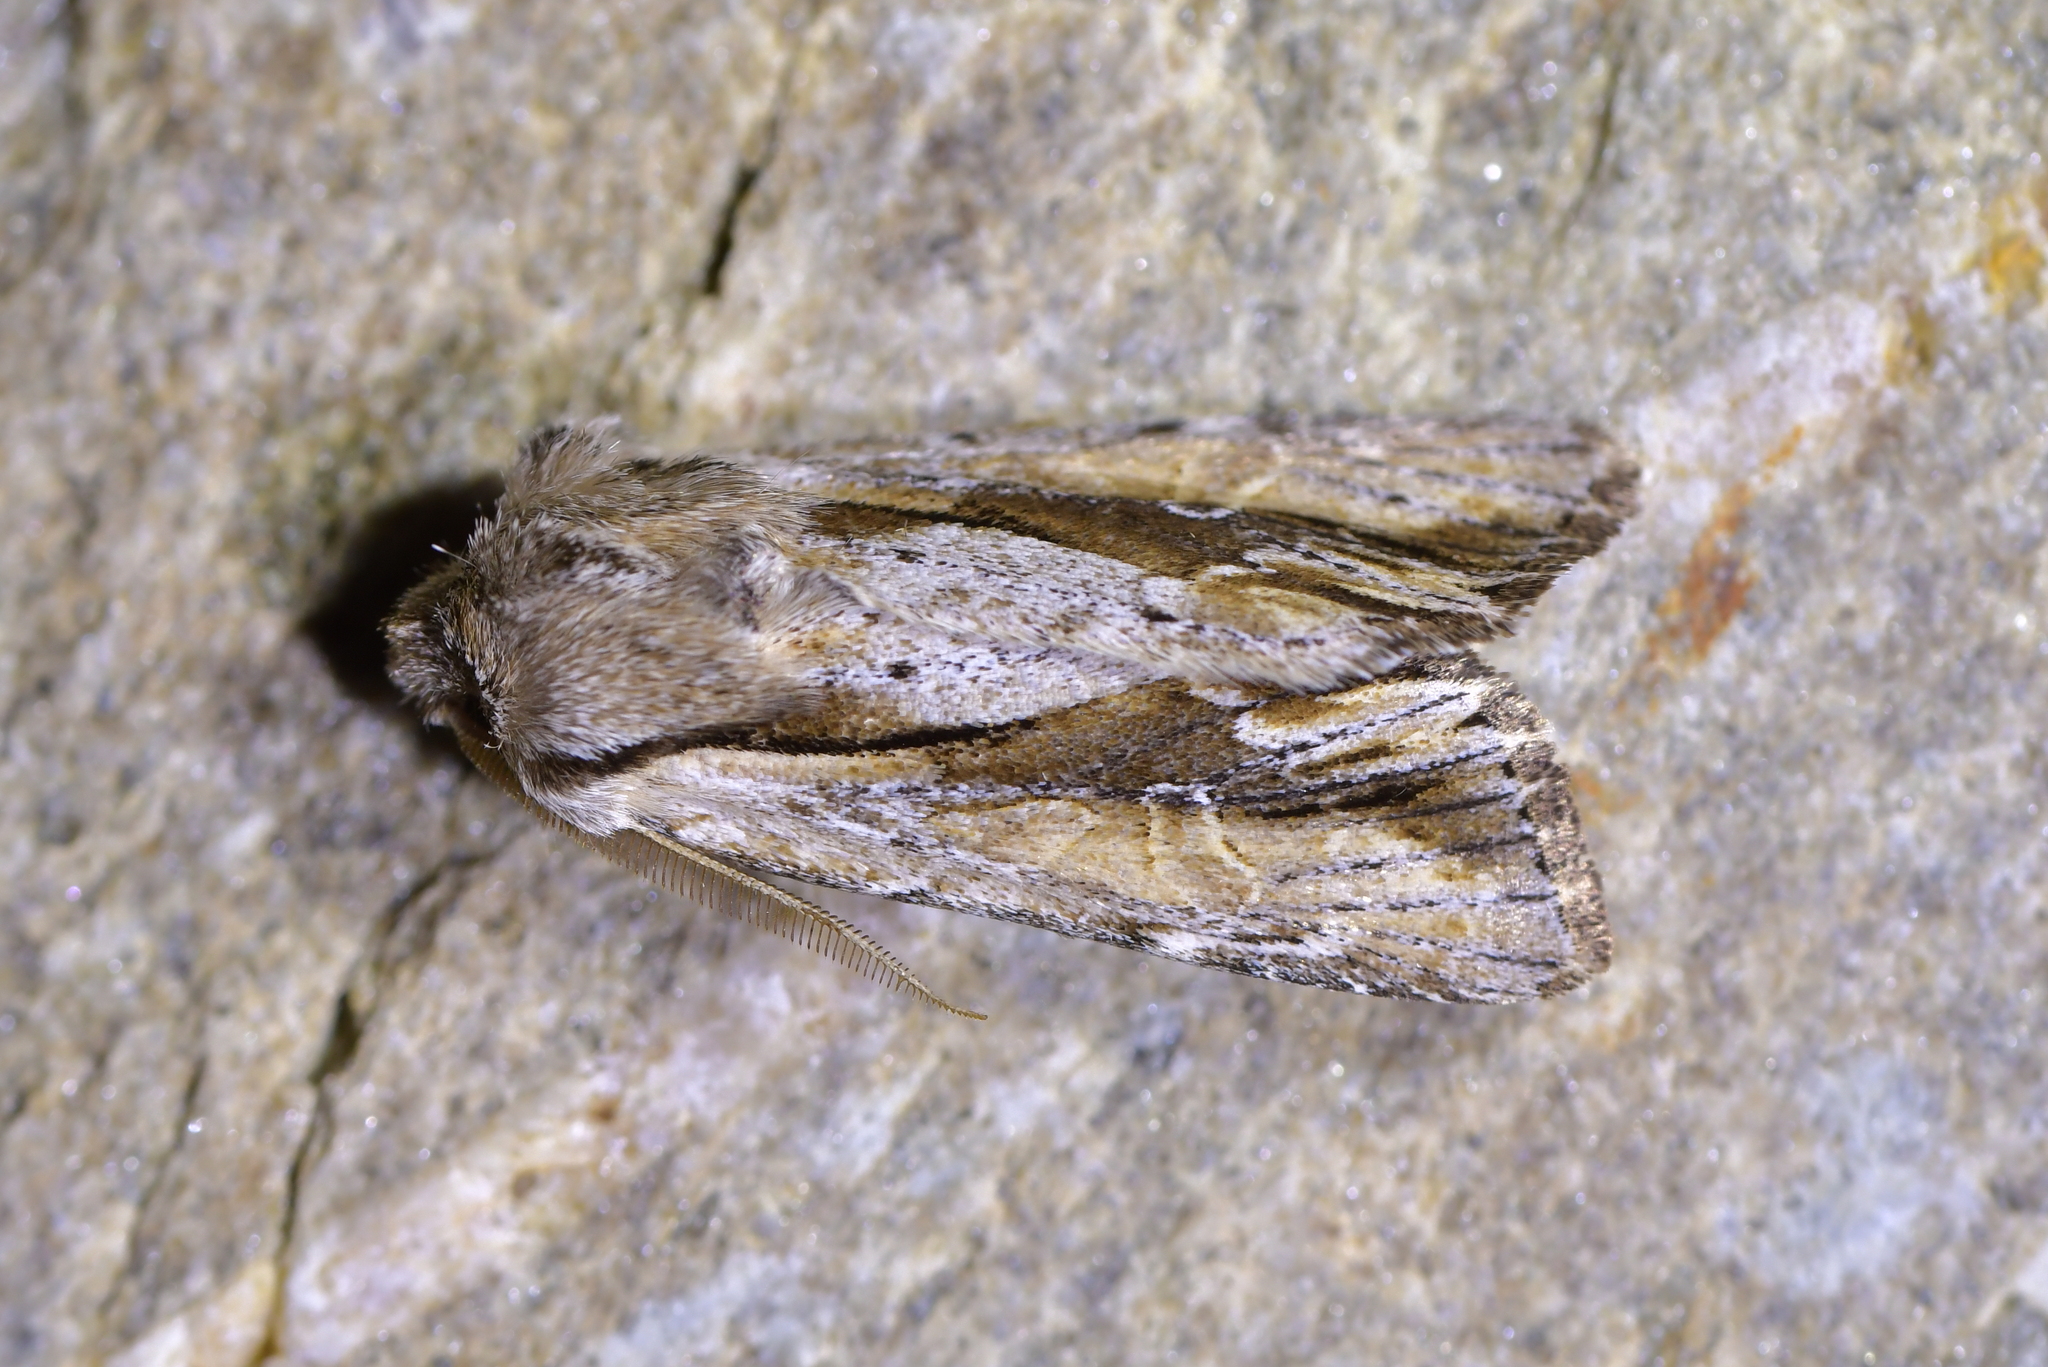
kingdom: Animalia
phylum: Arthropoda
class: Insecta
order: Lepidoptera
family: Noctuidae
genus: Ichneutica
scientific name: Ichneutica
